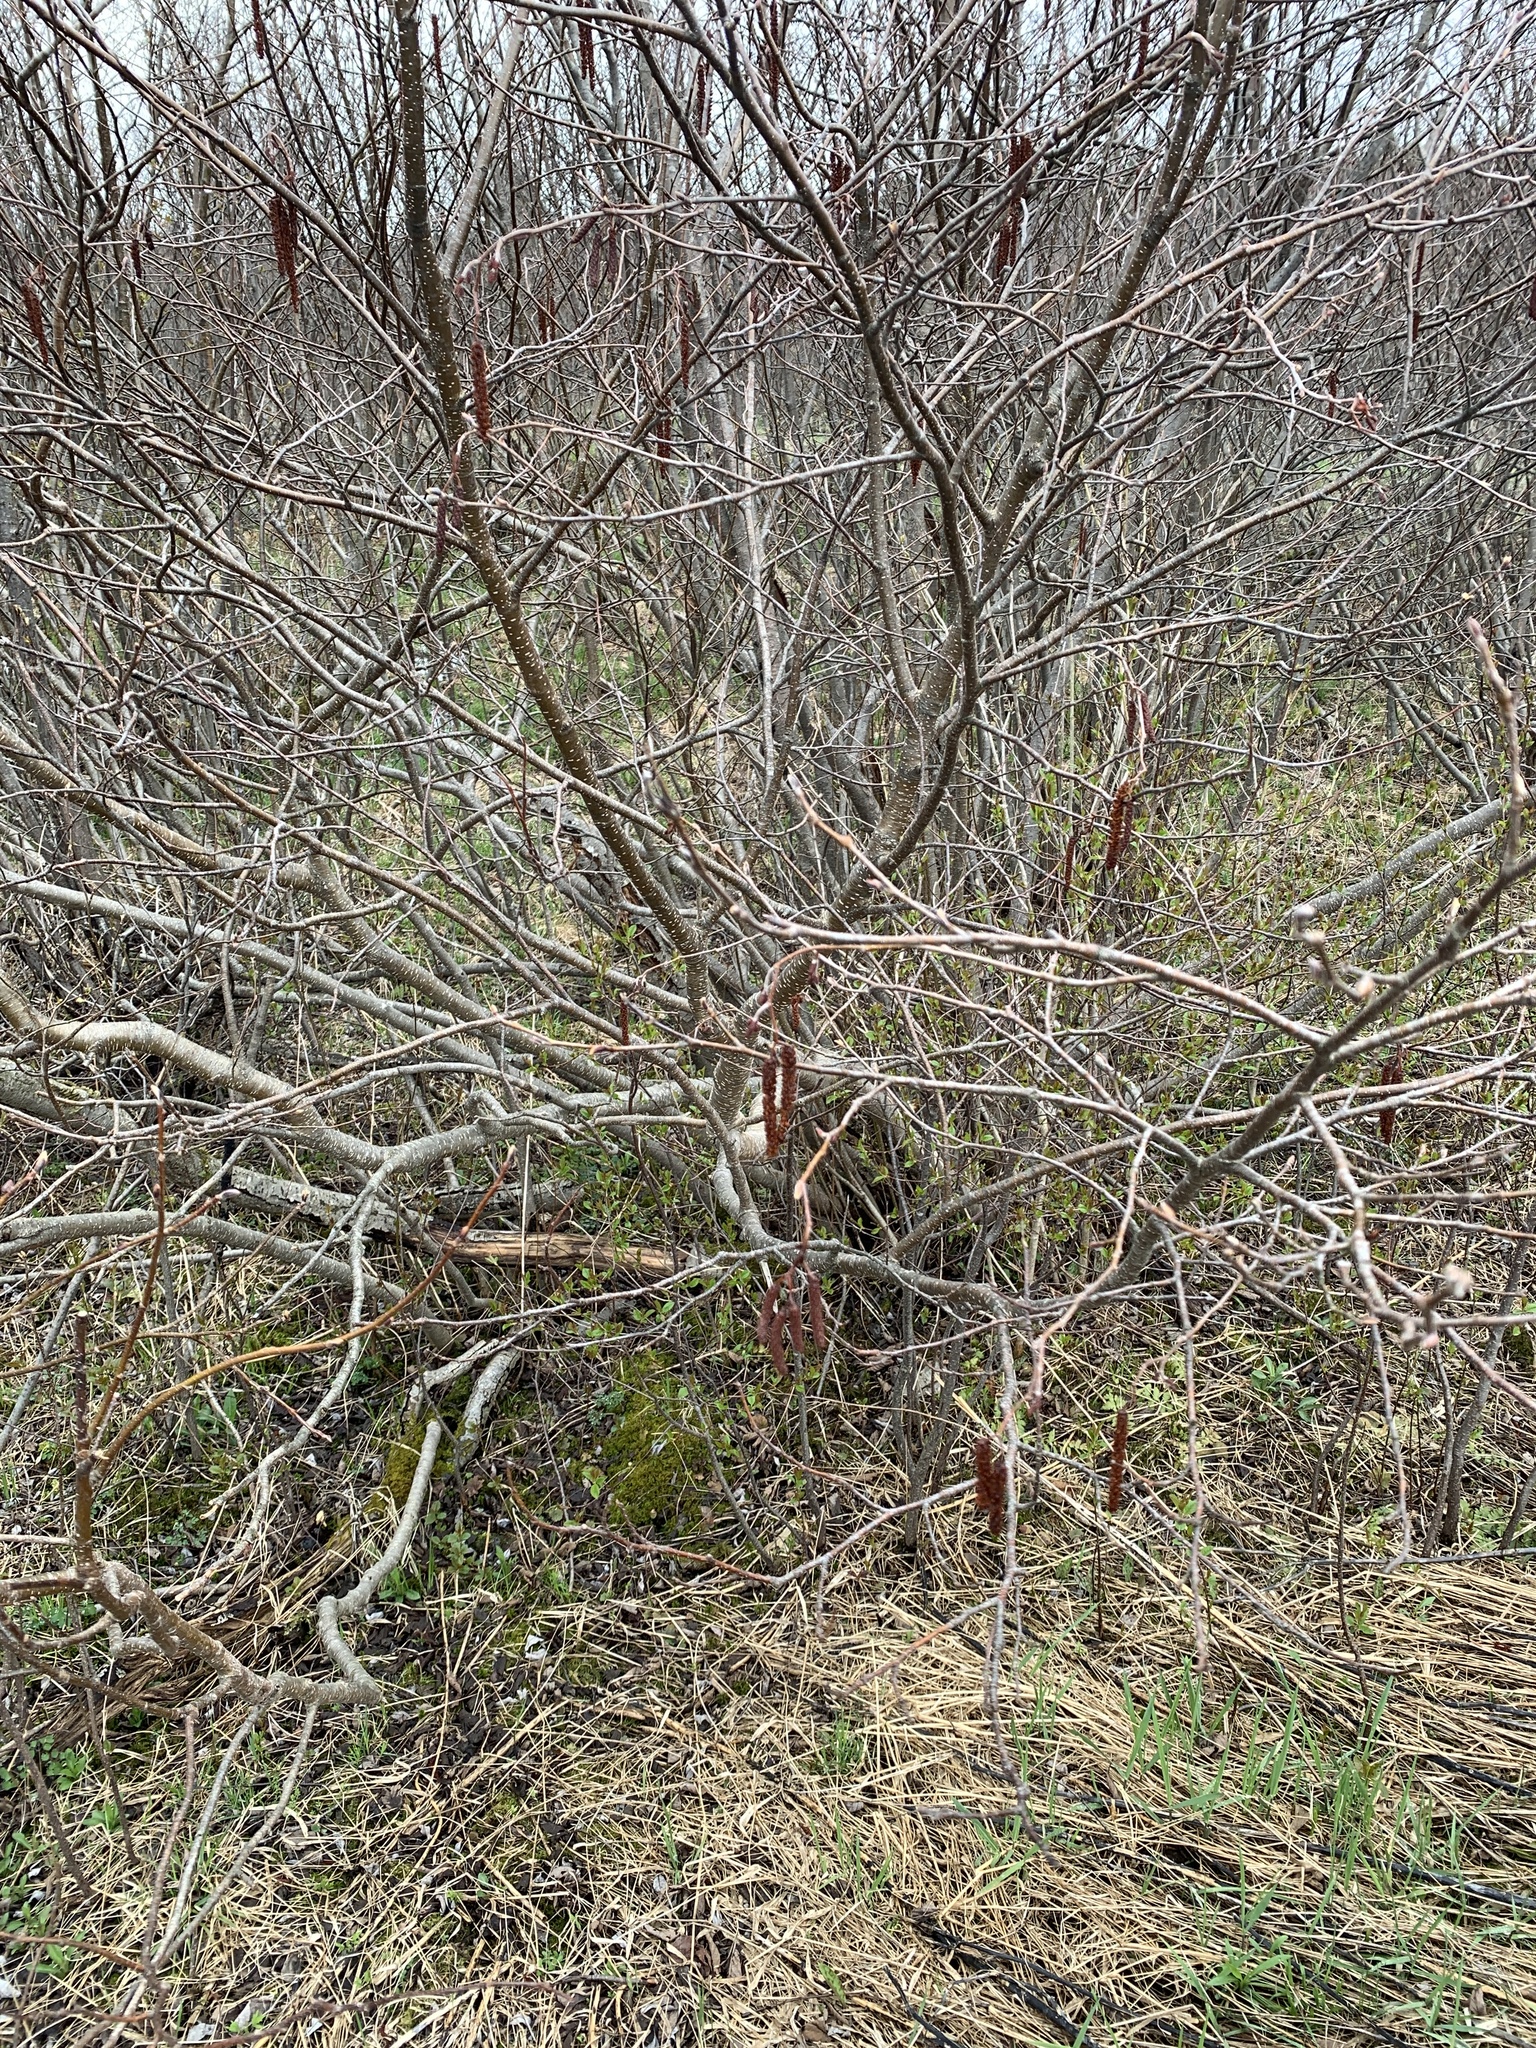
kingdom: Plantae
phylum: Tracheophyta
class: Magnoliopsida
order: Fagales
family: Betulaceae
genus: Alnus
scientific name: Alnus incana
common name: Grey alder
